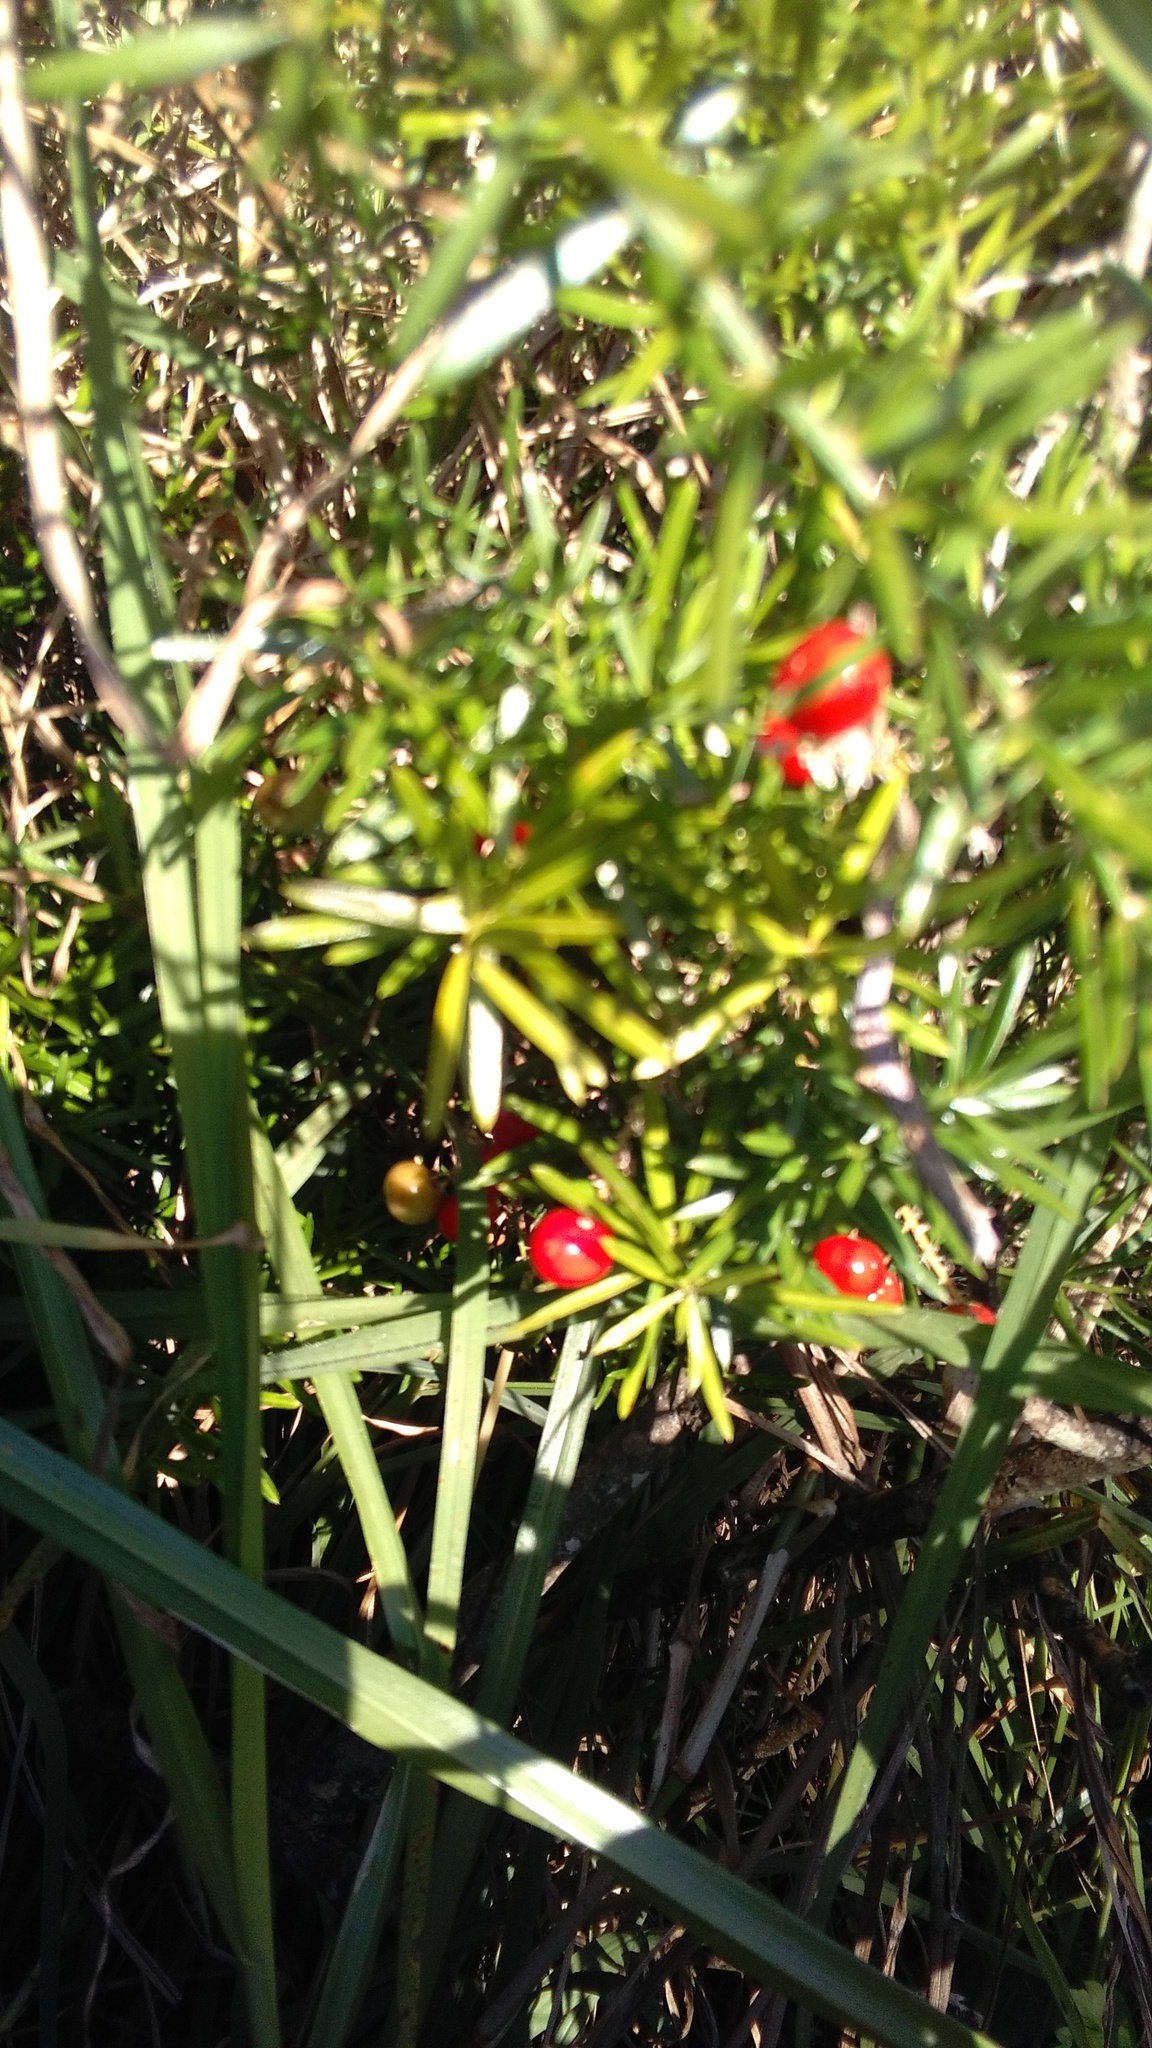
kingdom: Plantae
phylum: Tracheophyta
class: Liliopsida
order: Asparagales
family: Asparagaceae
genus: Asparagus
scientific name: Asparagus aethiopicus
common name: Sprenger's asparagus fern
